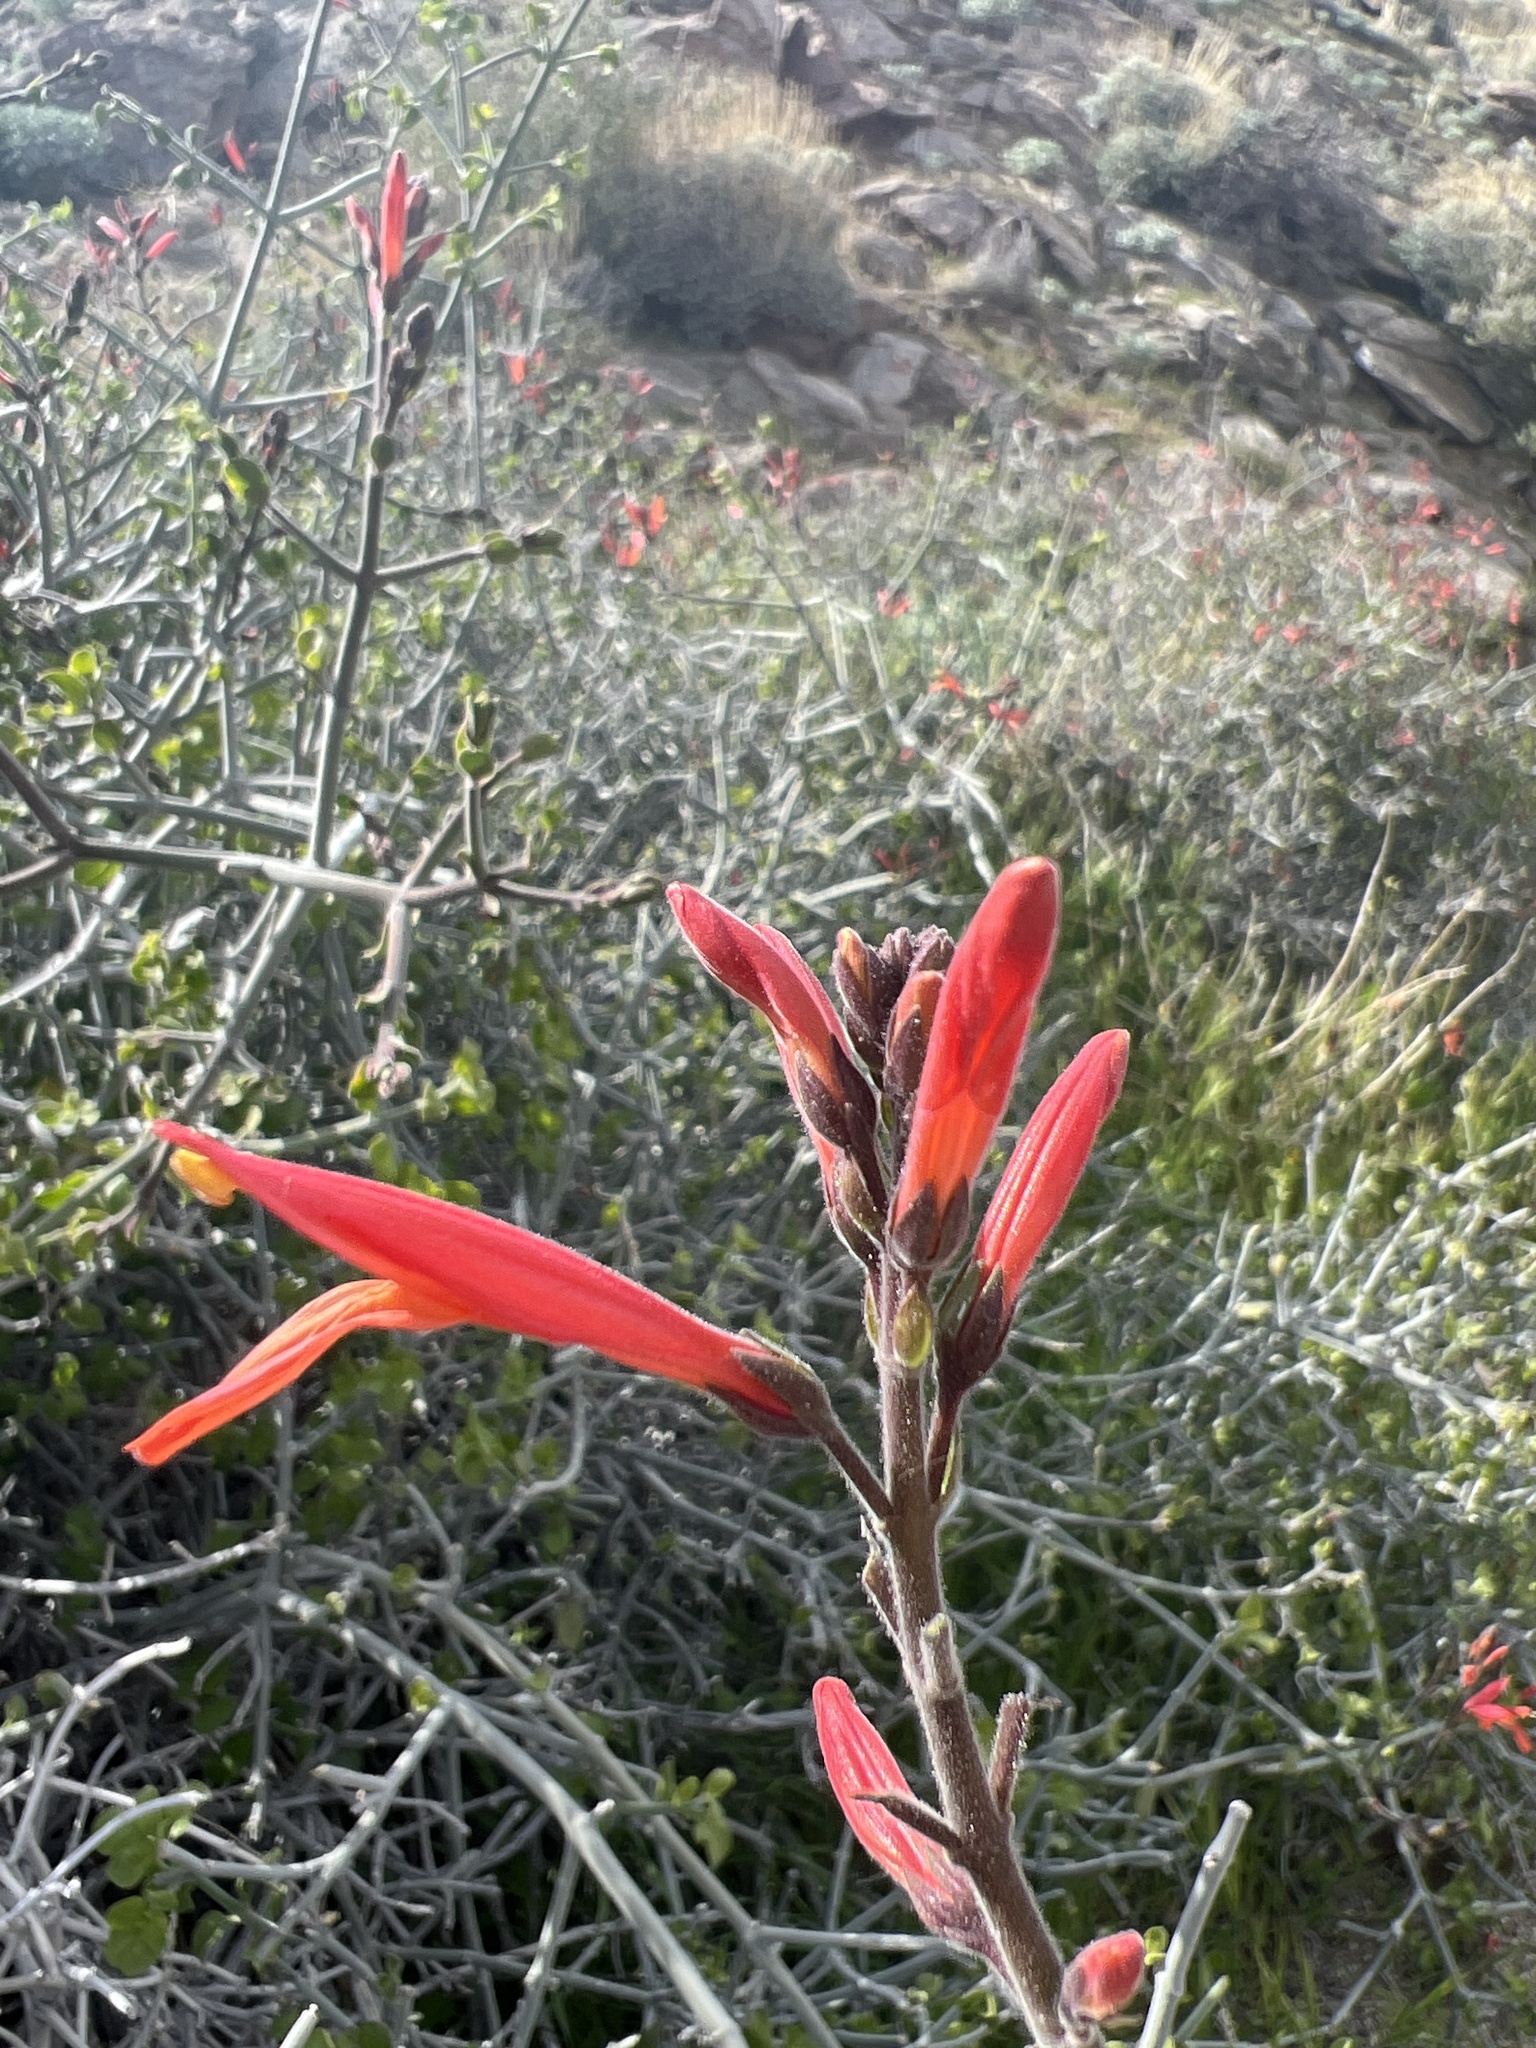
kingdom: Plantae
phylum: Tracheophyta
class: Magnoliopsida
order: Lamiales
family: Acanthaceae
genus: Justicia
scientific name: Justicia californica
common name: Chuparosa-honeysuckle
